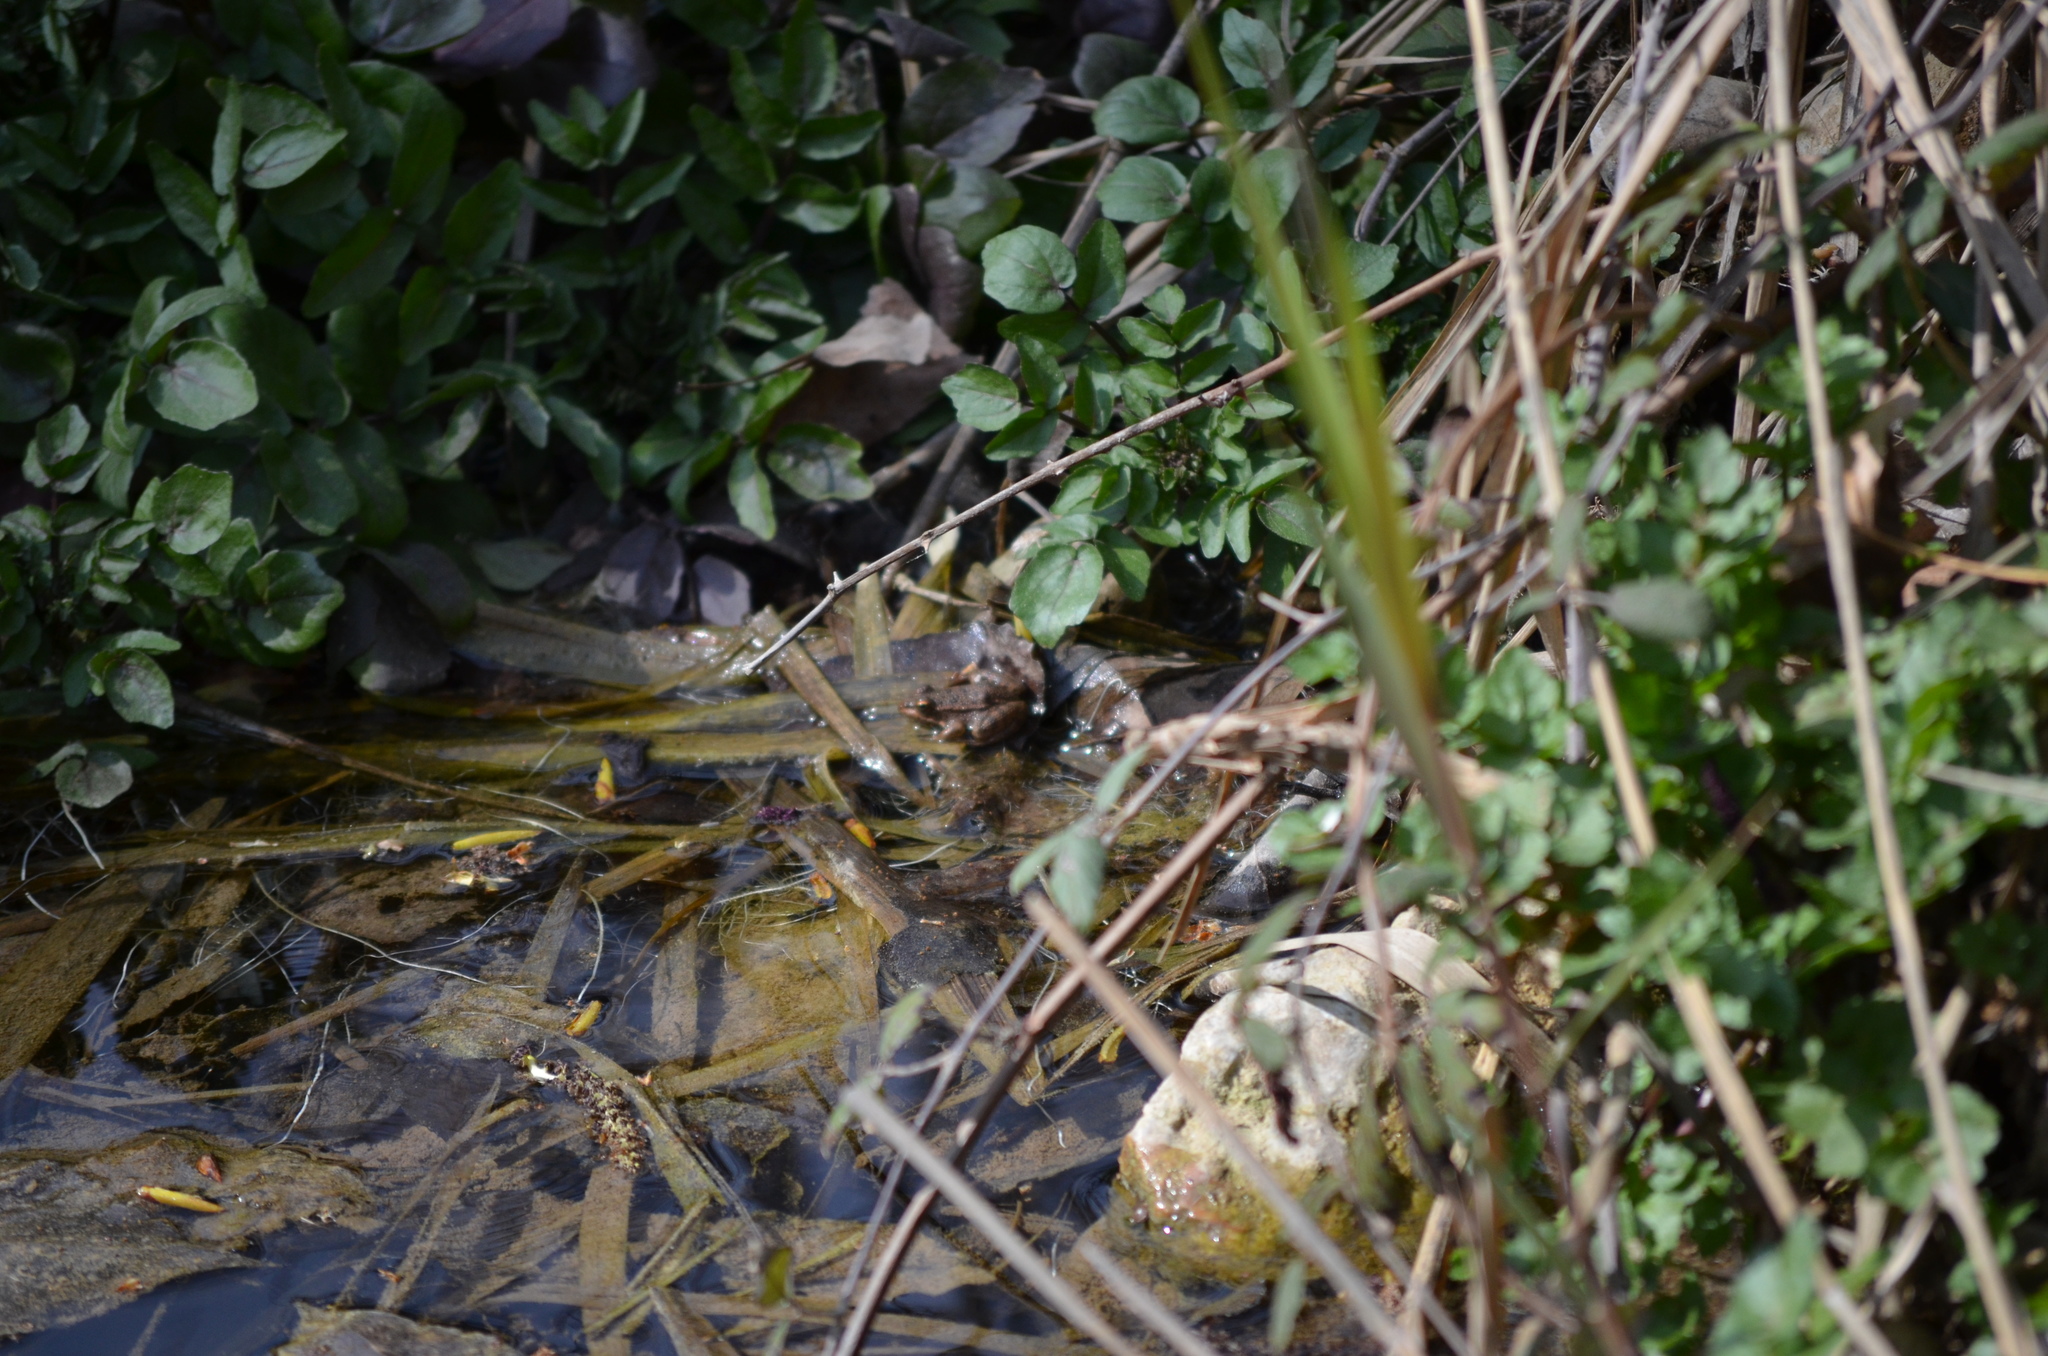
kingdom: Animalia
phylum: Chordata
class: Amphibia
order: Anura
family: Ranidae
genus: Pelophylax
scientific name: Pelophylax perezi
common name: Perez's frog
